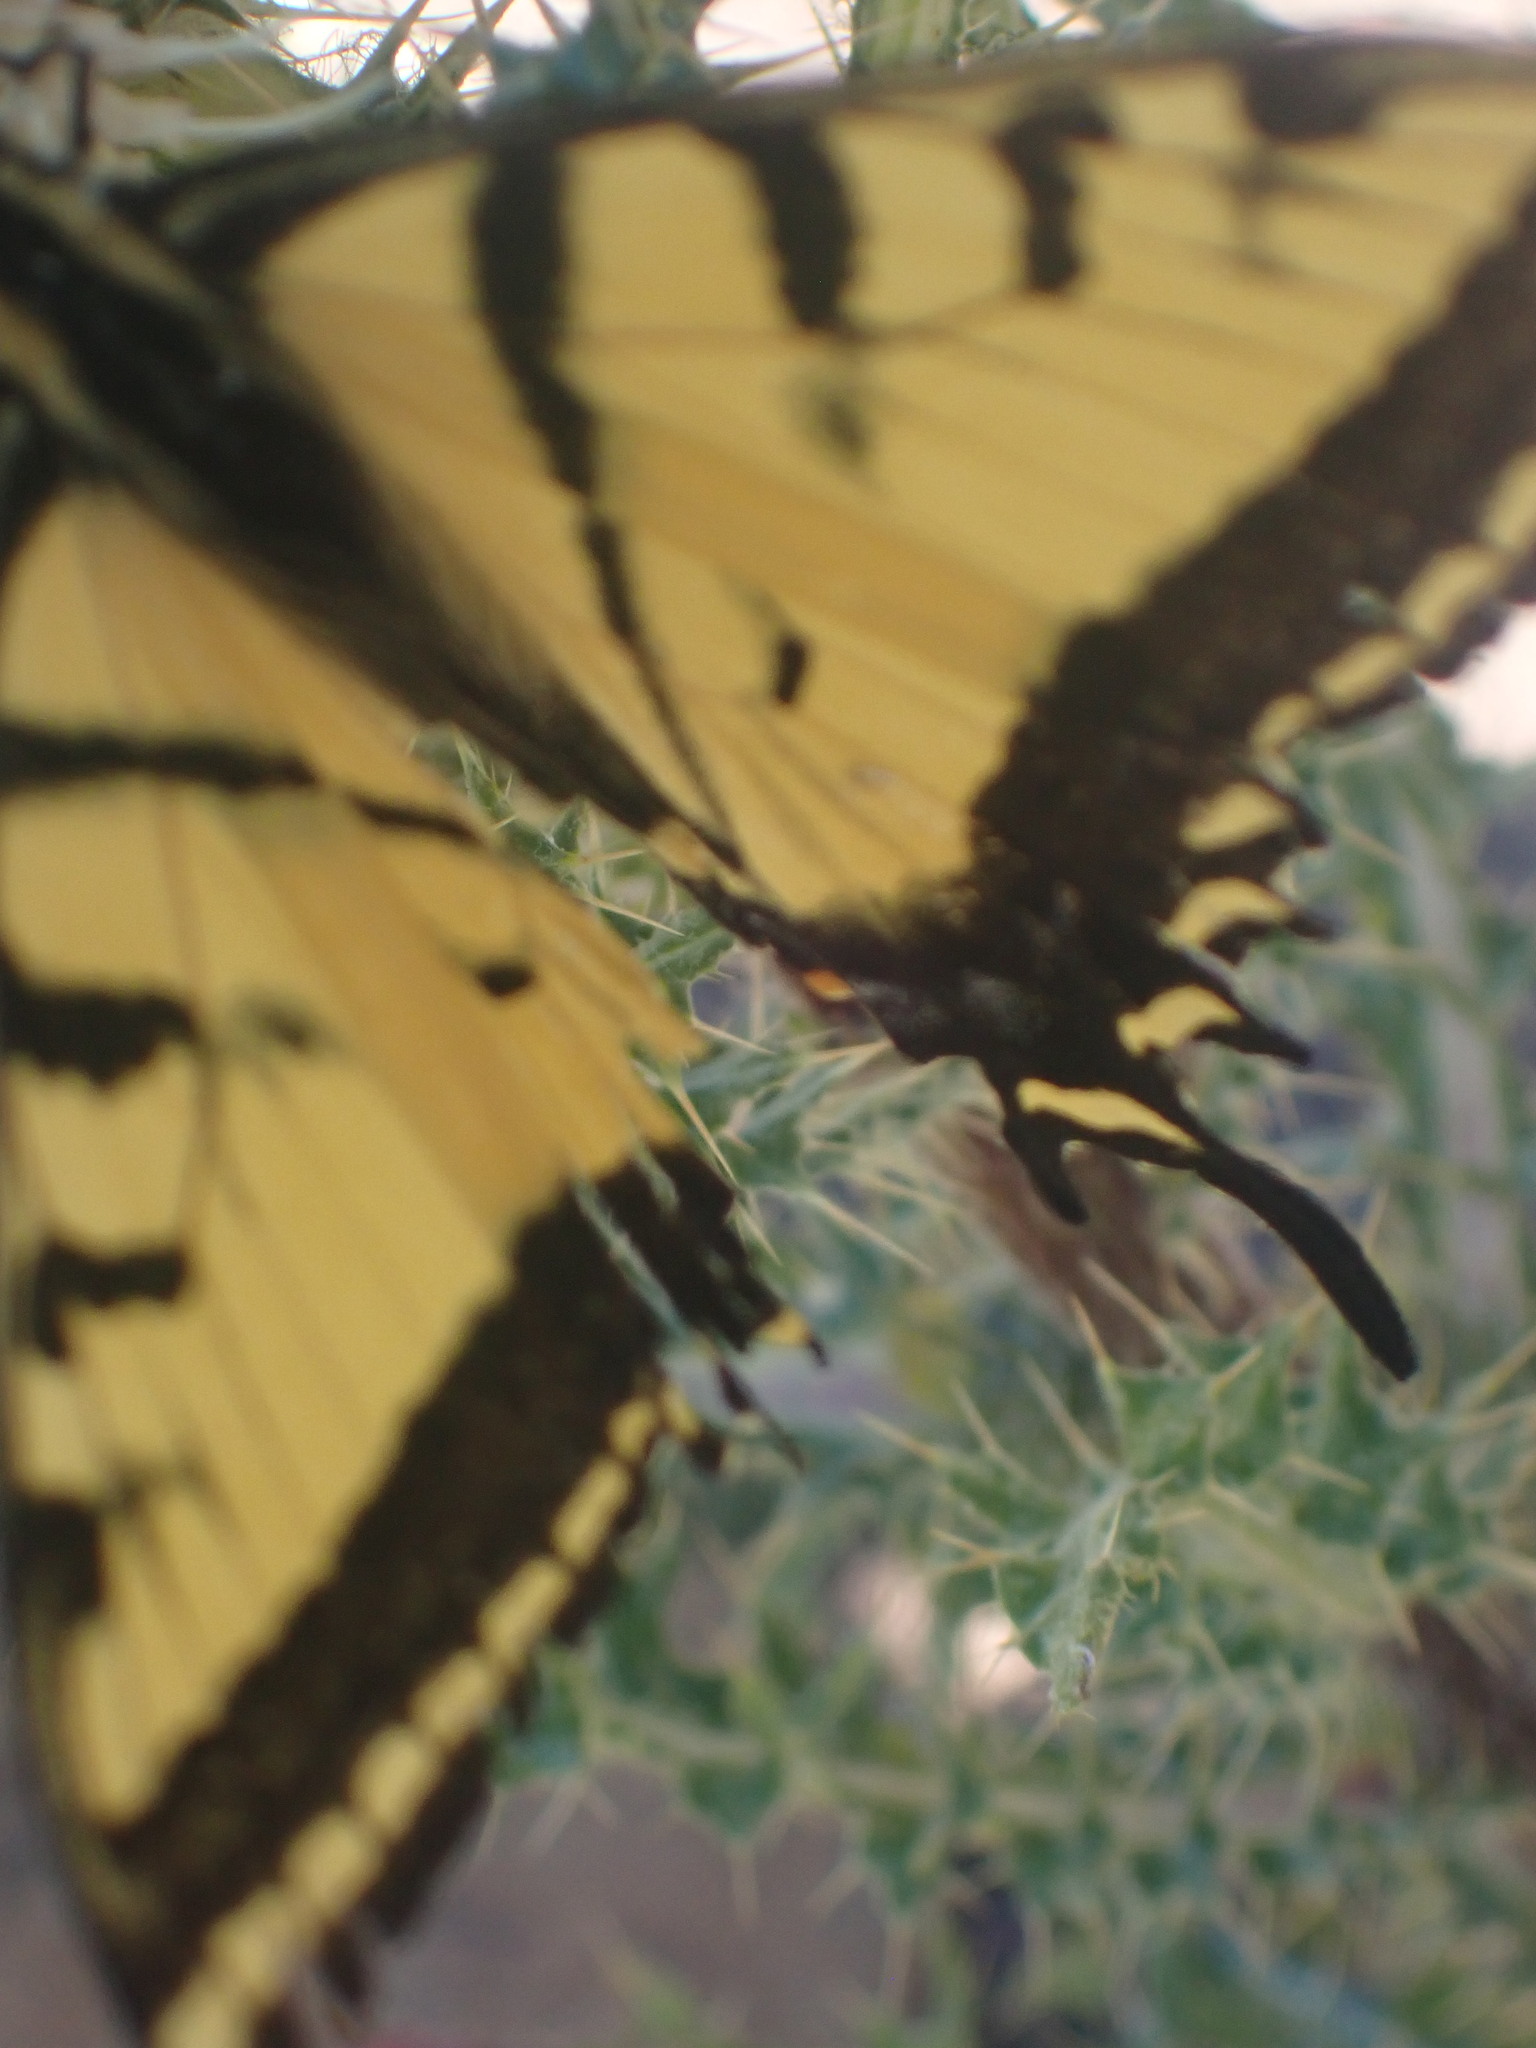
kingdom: Animalia
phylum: Arthropoda
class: Insecta
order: Lepidoptera
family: Papilionidae
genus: Papilio
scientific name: Papilio multicaudata
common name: Two-tailed tiger swallowtail
